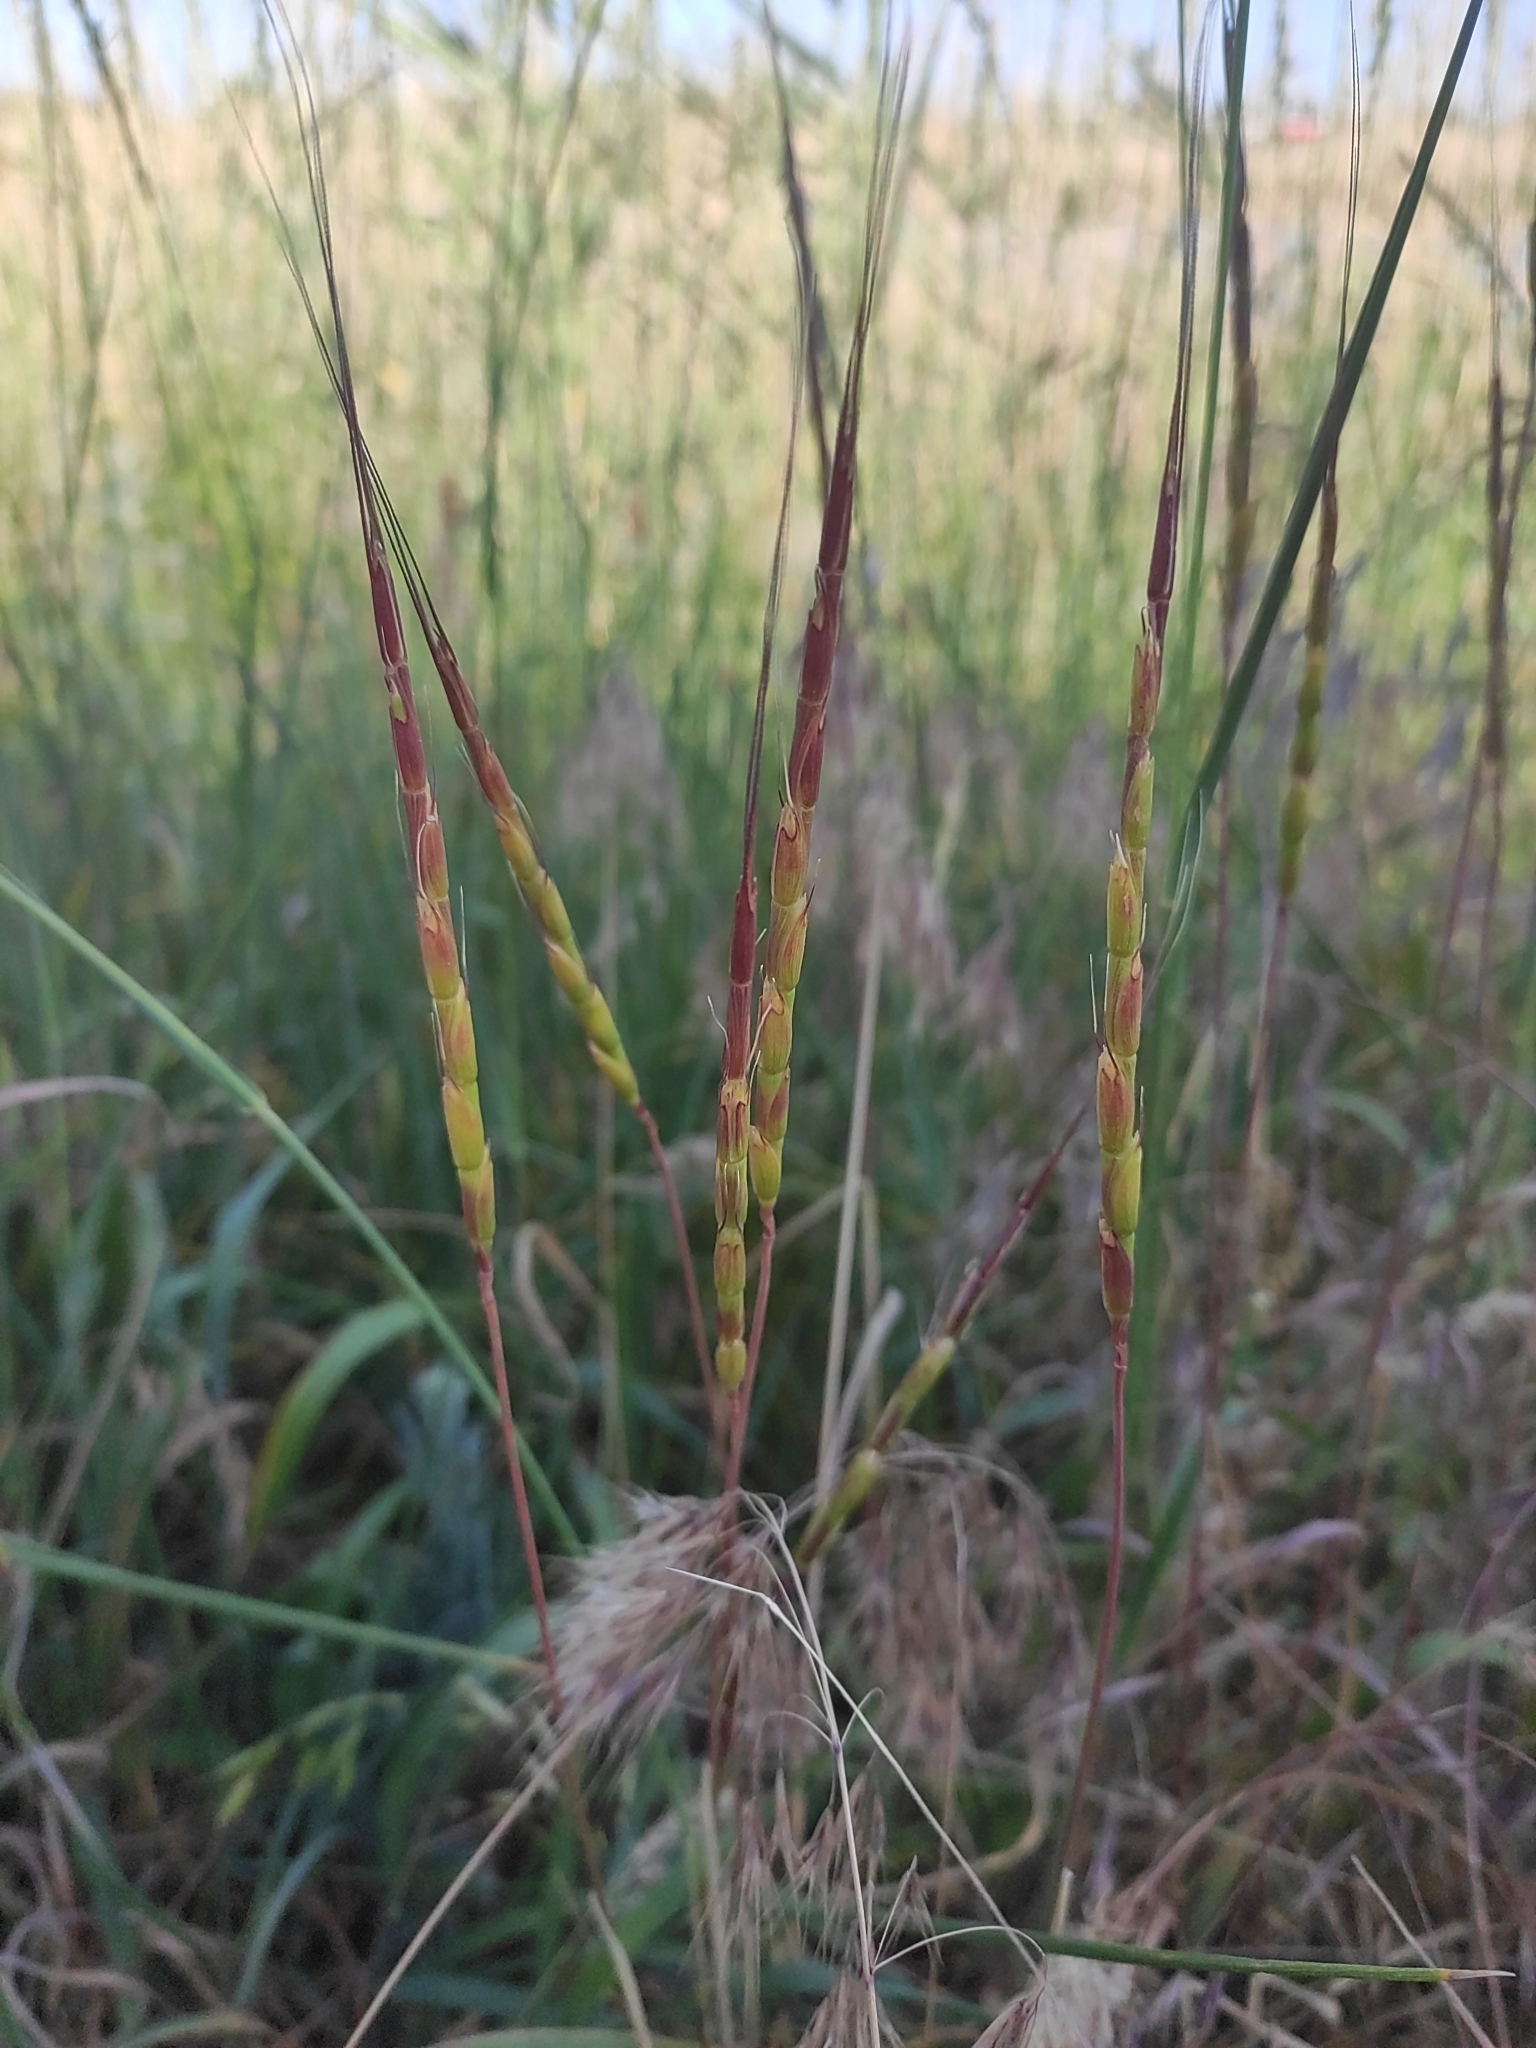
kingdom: Plantae
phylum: Tracheophyta
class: Liliopsida
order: Poales
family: Poaceae
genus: Aegilops
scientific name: Aegilops cylindrica
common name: Jointed goatgrass
